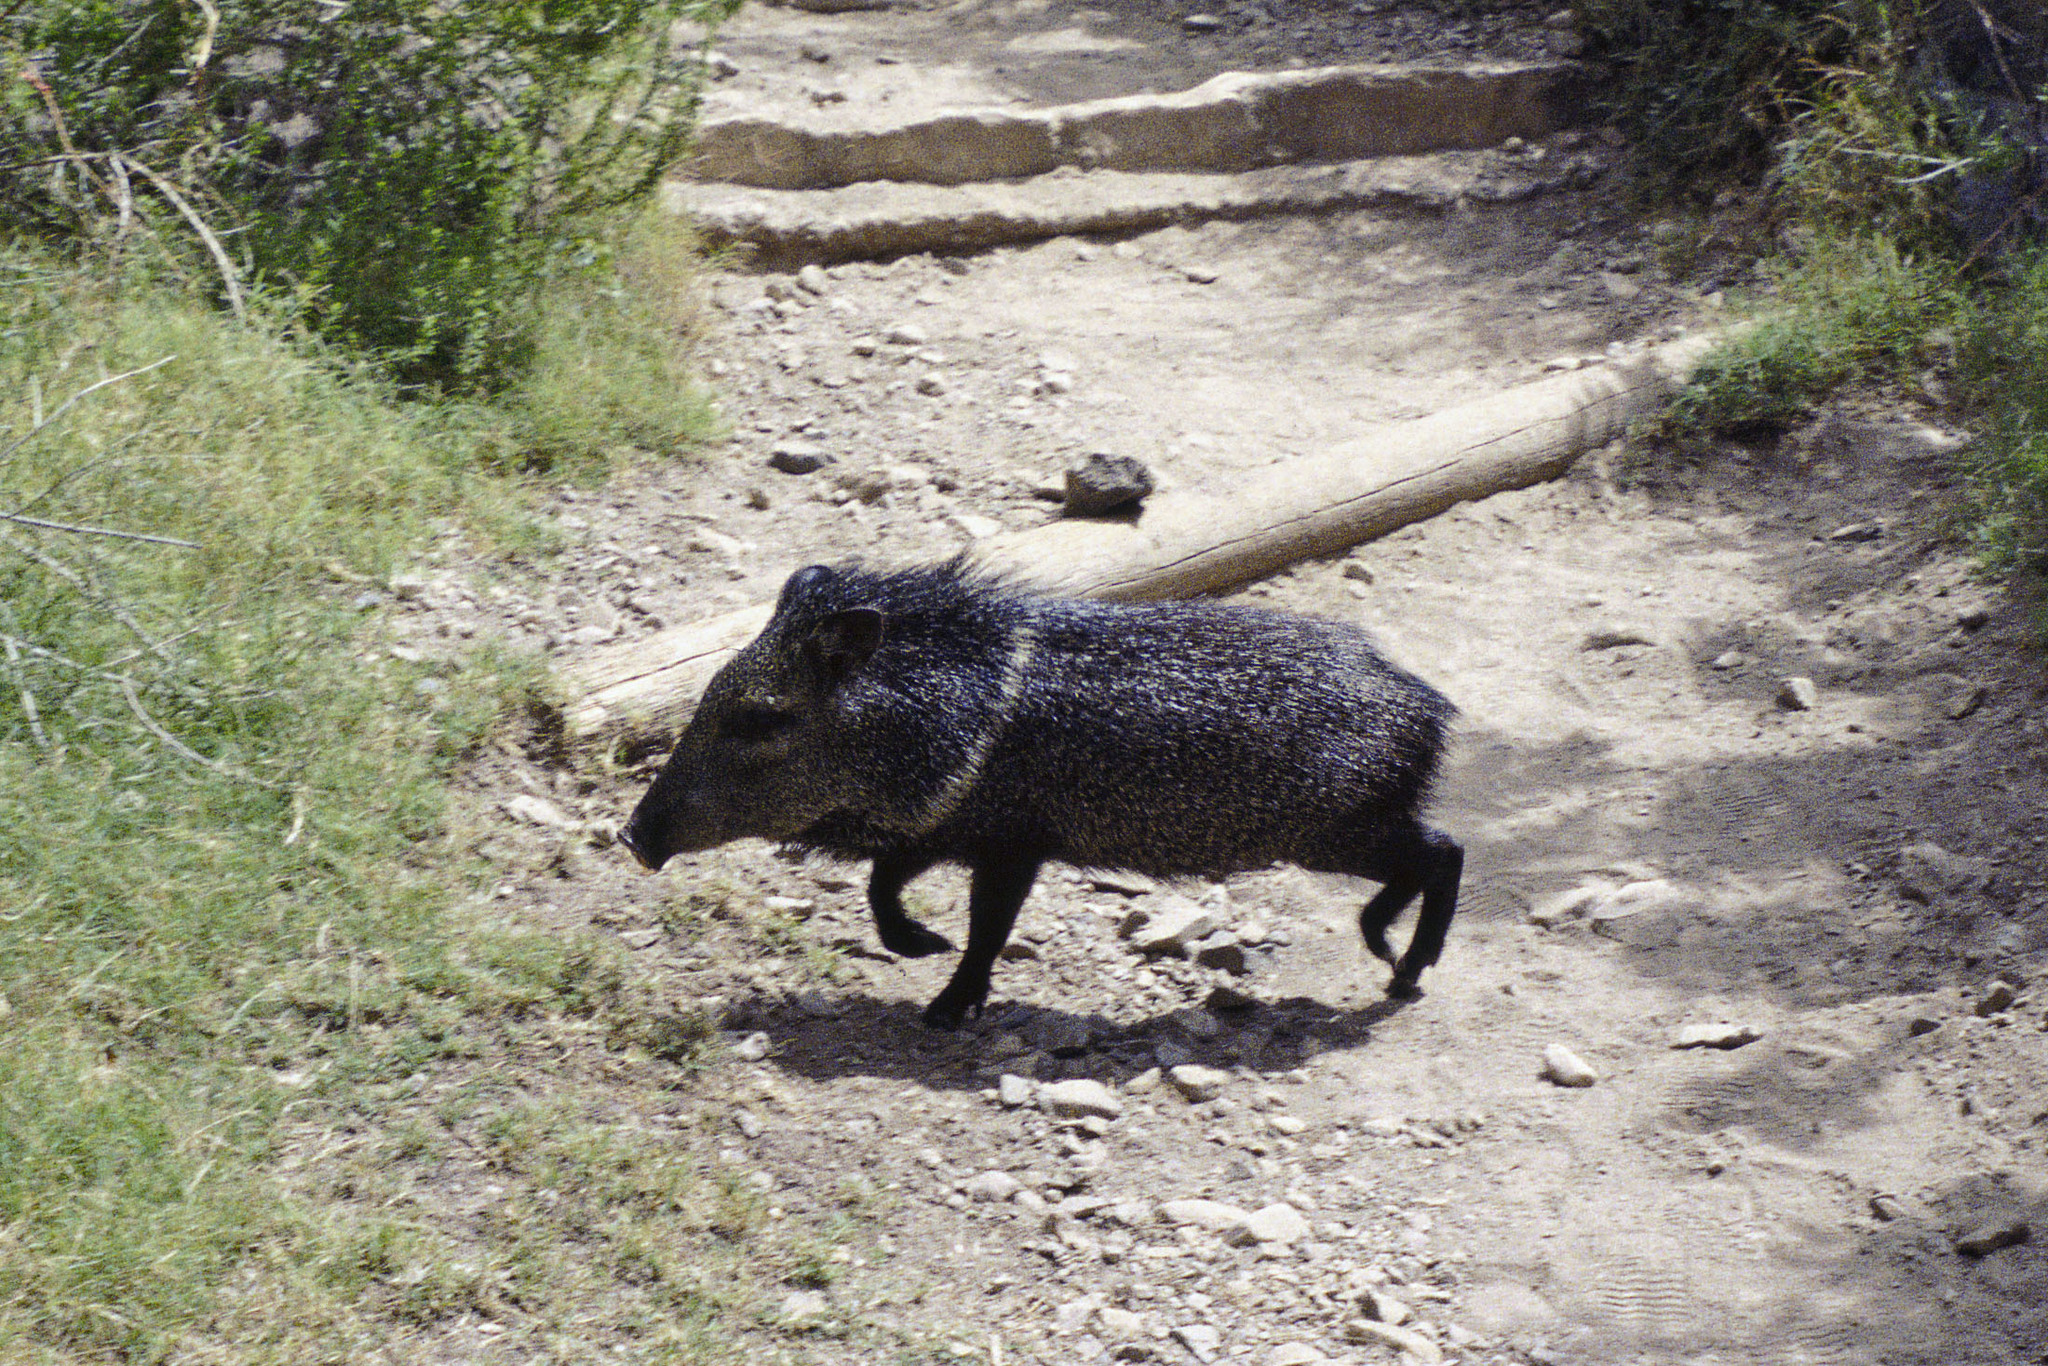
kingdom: Animalia
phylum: Chordata
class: Mammalia
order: Artiodactyla
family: Tayassuidae
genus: Pecari
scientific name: Pecari tajacu
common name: Collared peccary
